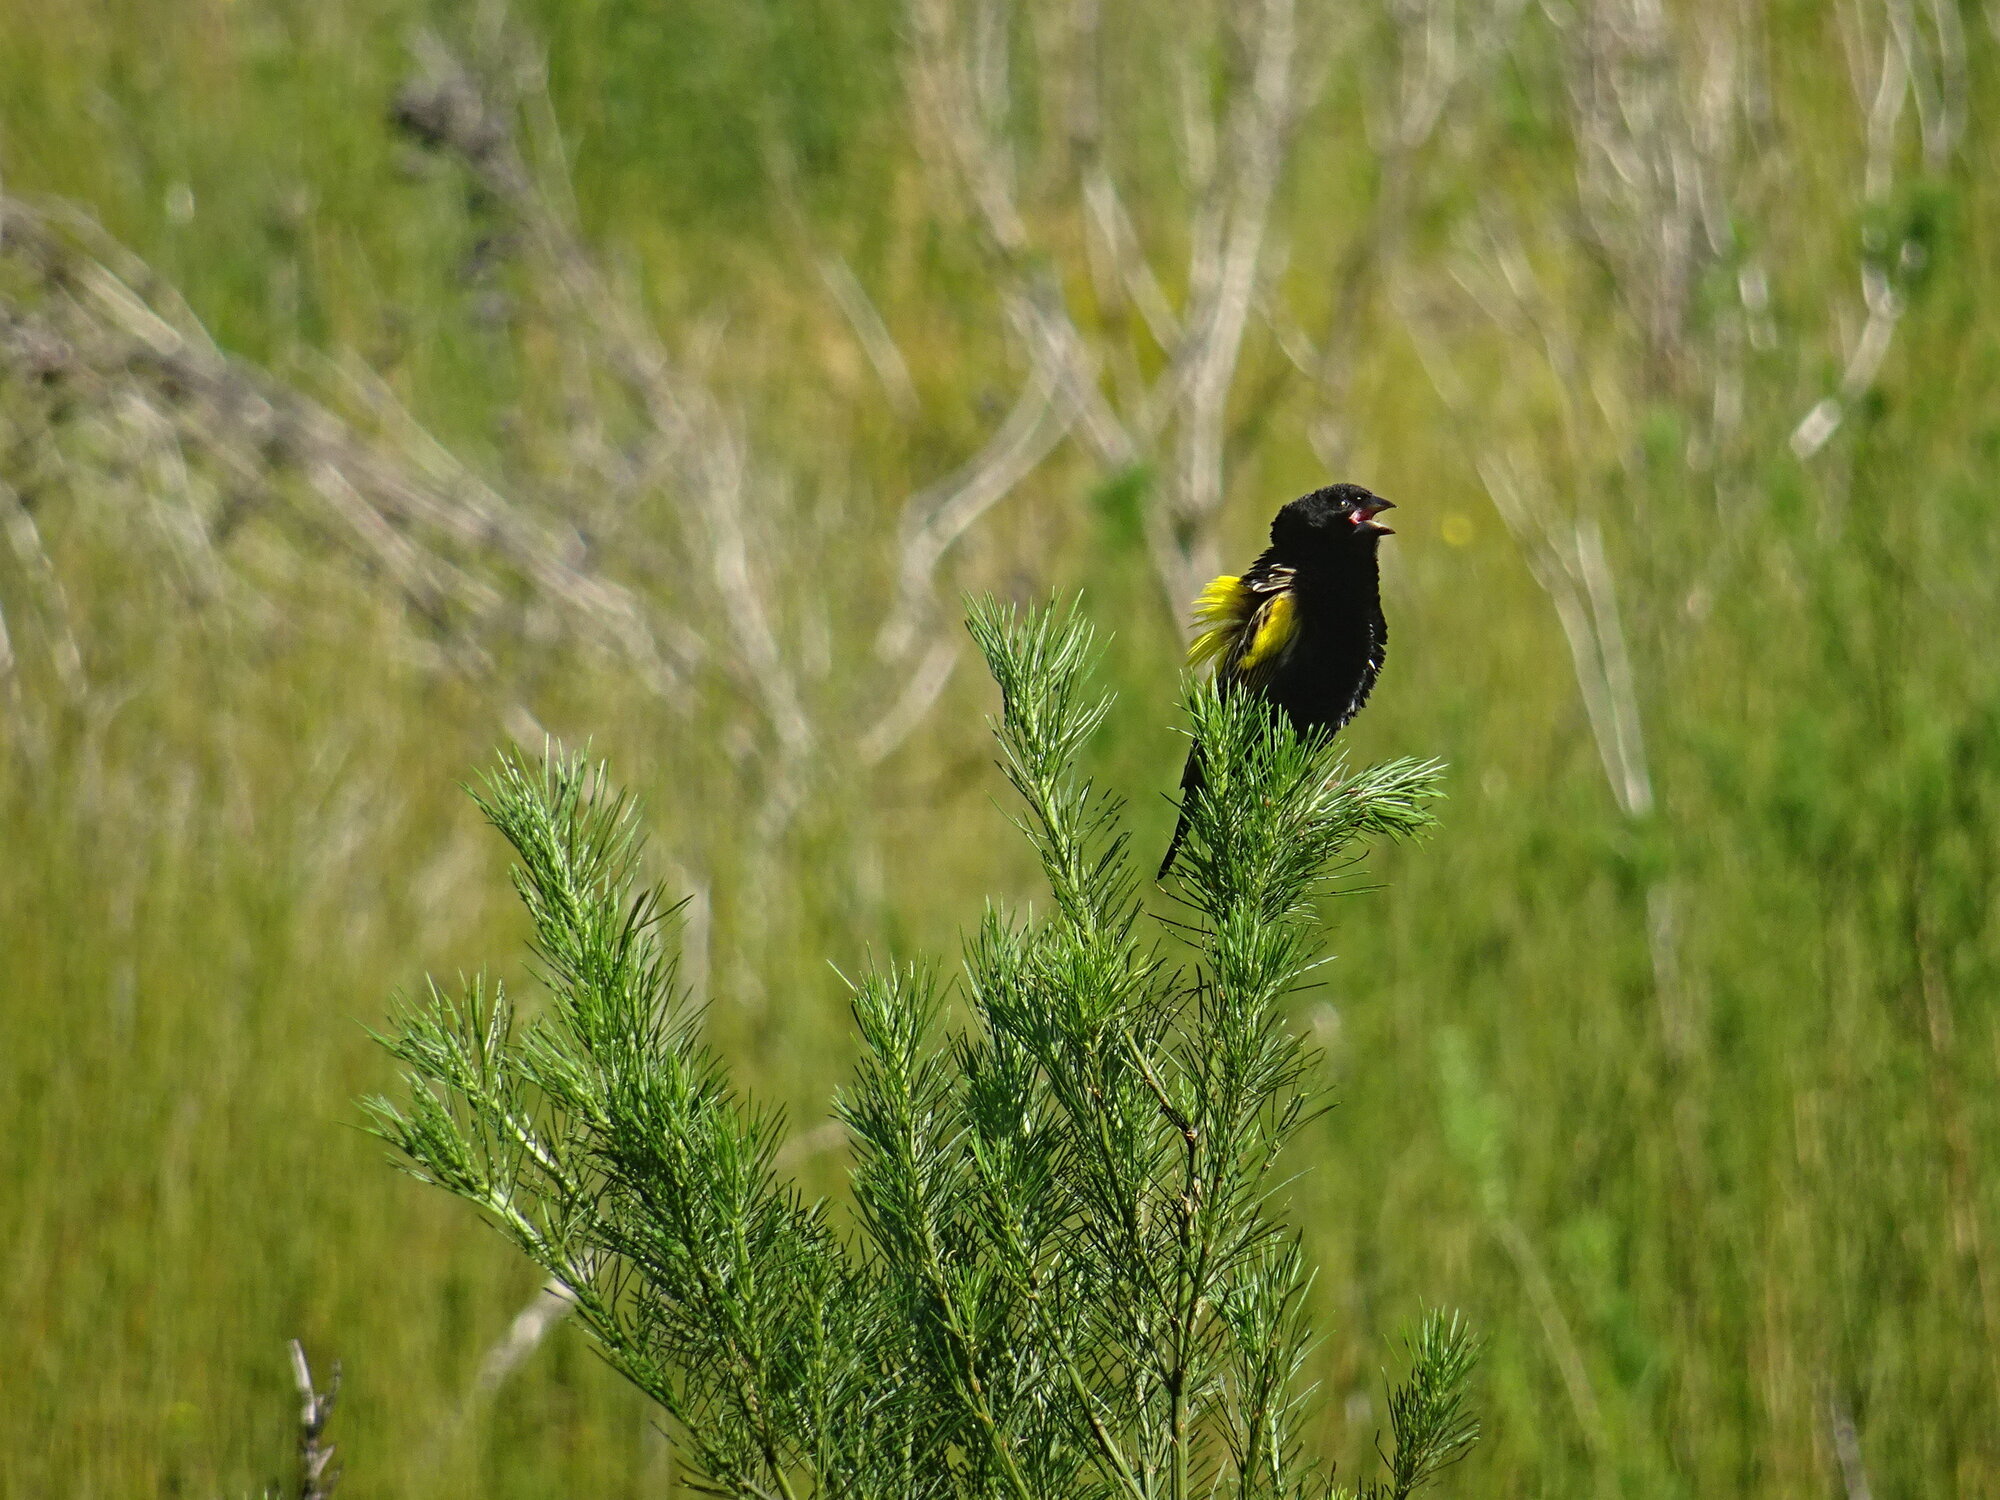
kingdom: Animalia
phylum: Chordata
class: Aves
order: Passeriformes
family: Ploceidae
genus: Euplectes
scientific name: Euplectes capensis
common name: Yellow bishop
